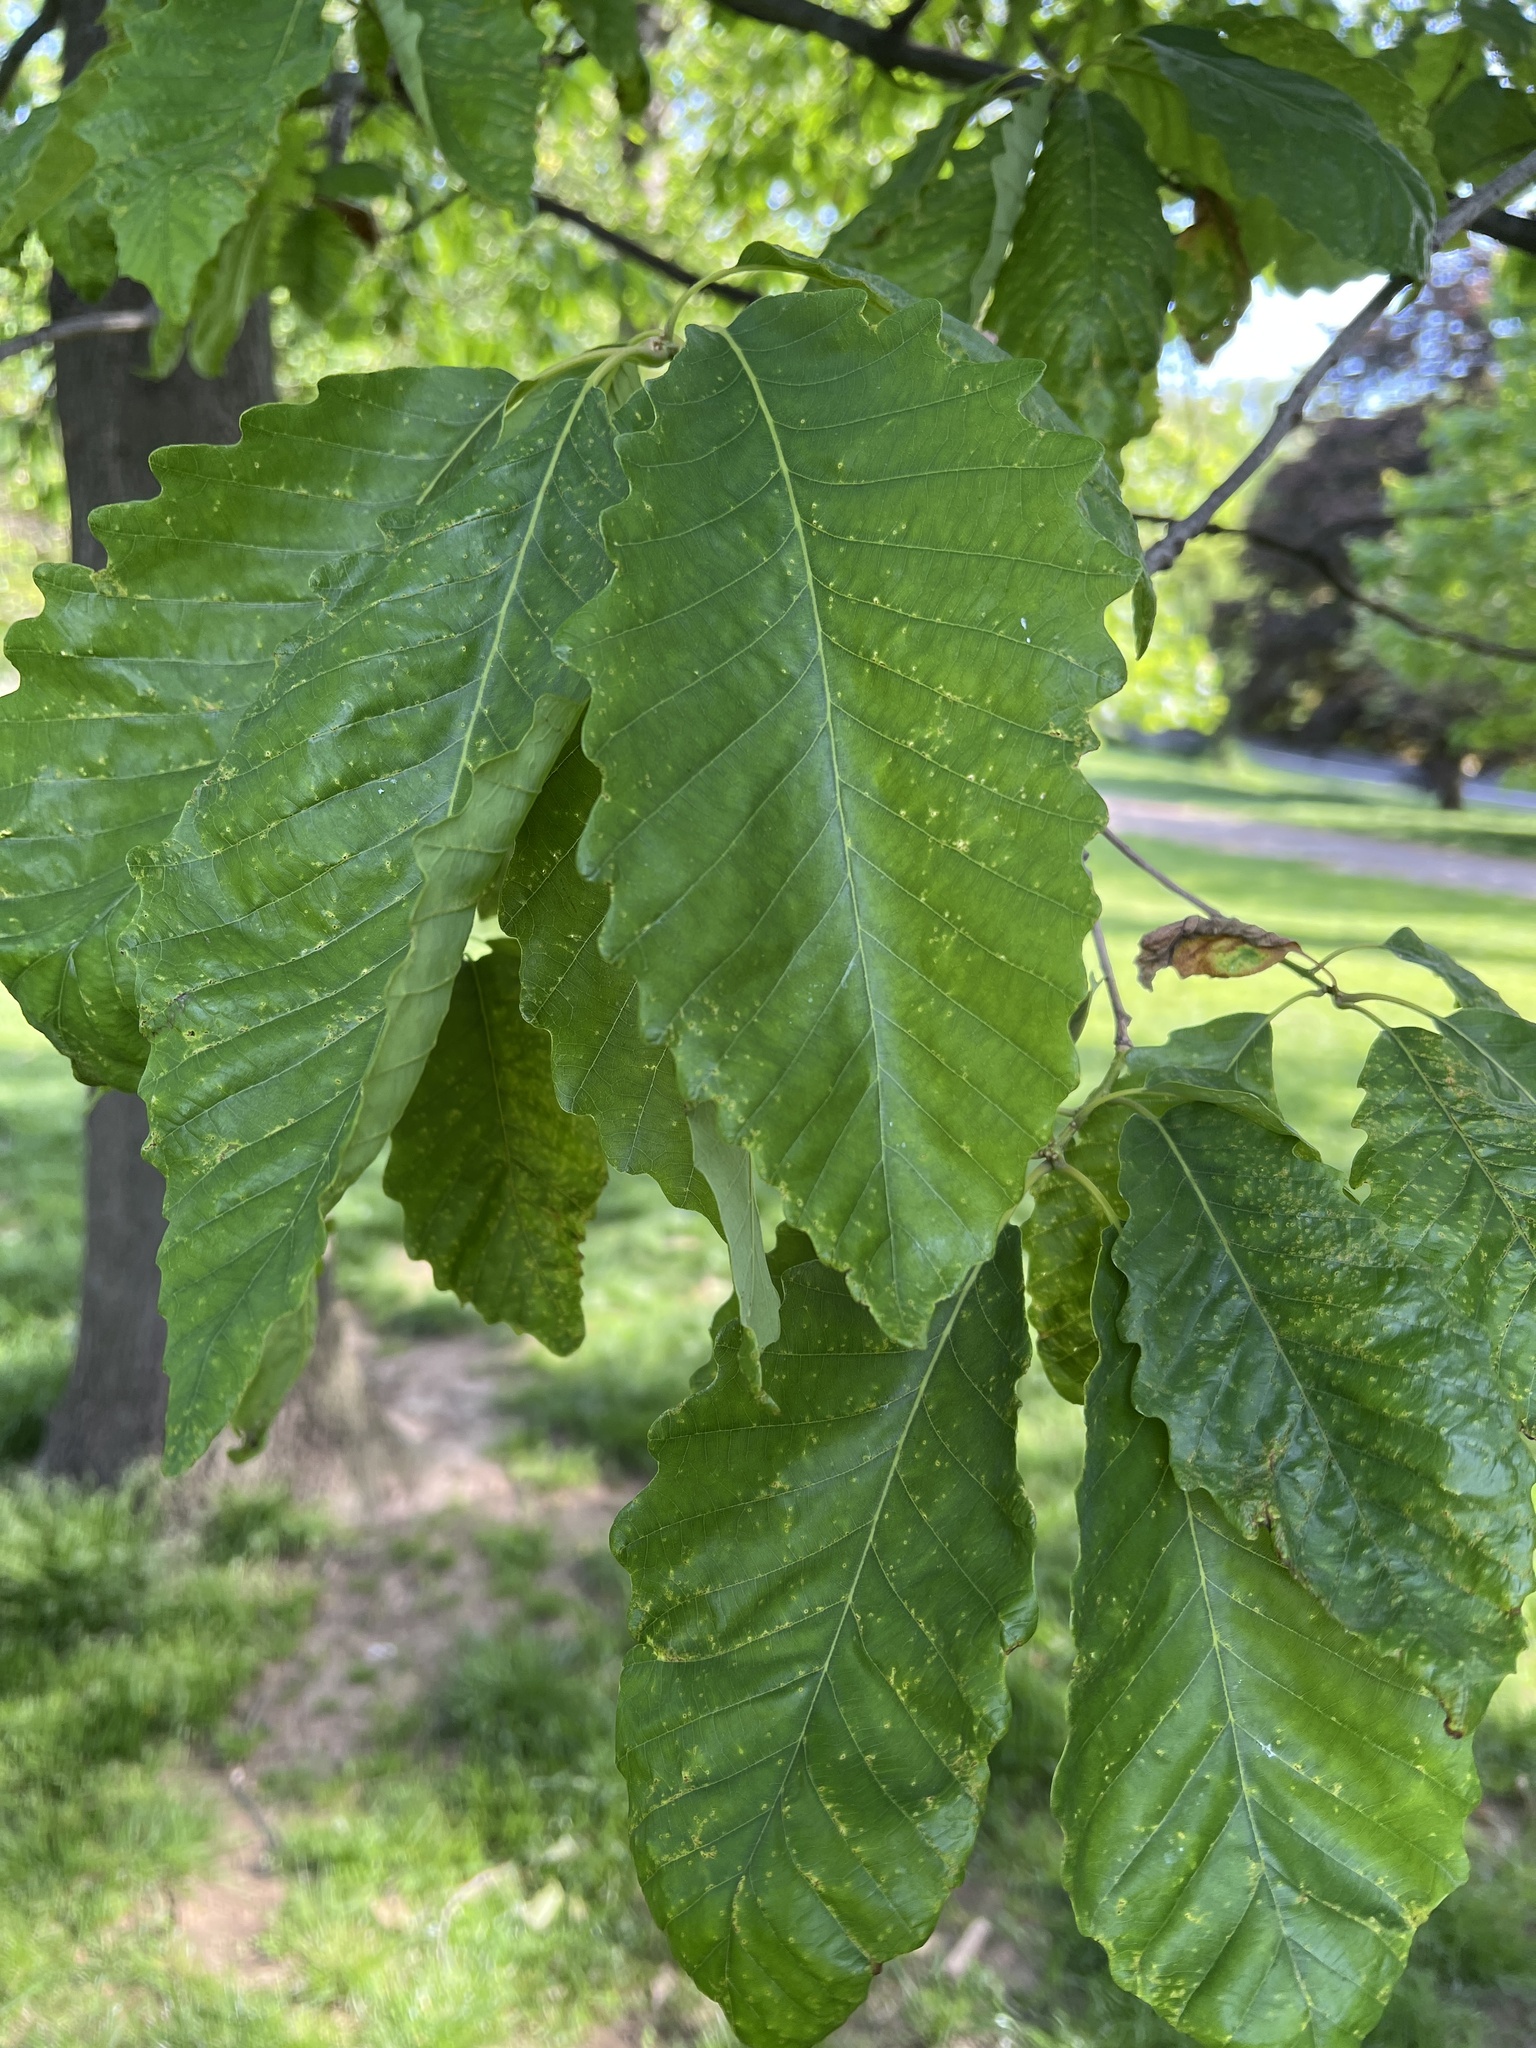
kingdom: Plantae
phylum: Tracheophyta
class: Magnoliopsida
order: Fagales
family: Fagaceae
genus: Quercus
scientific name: Quercus montana
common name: Chestnut oak
